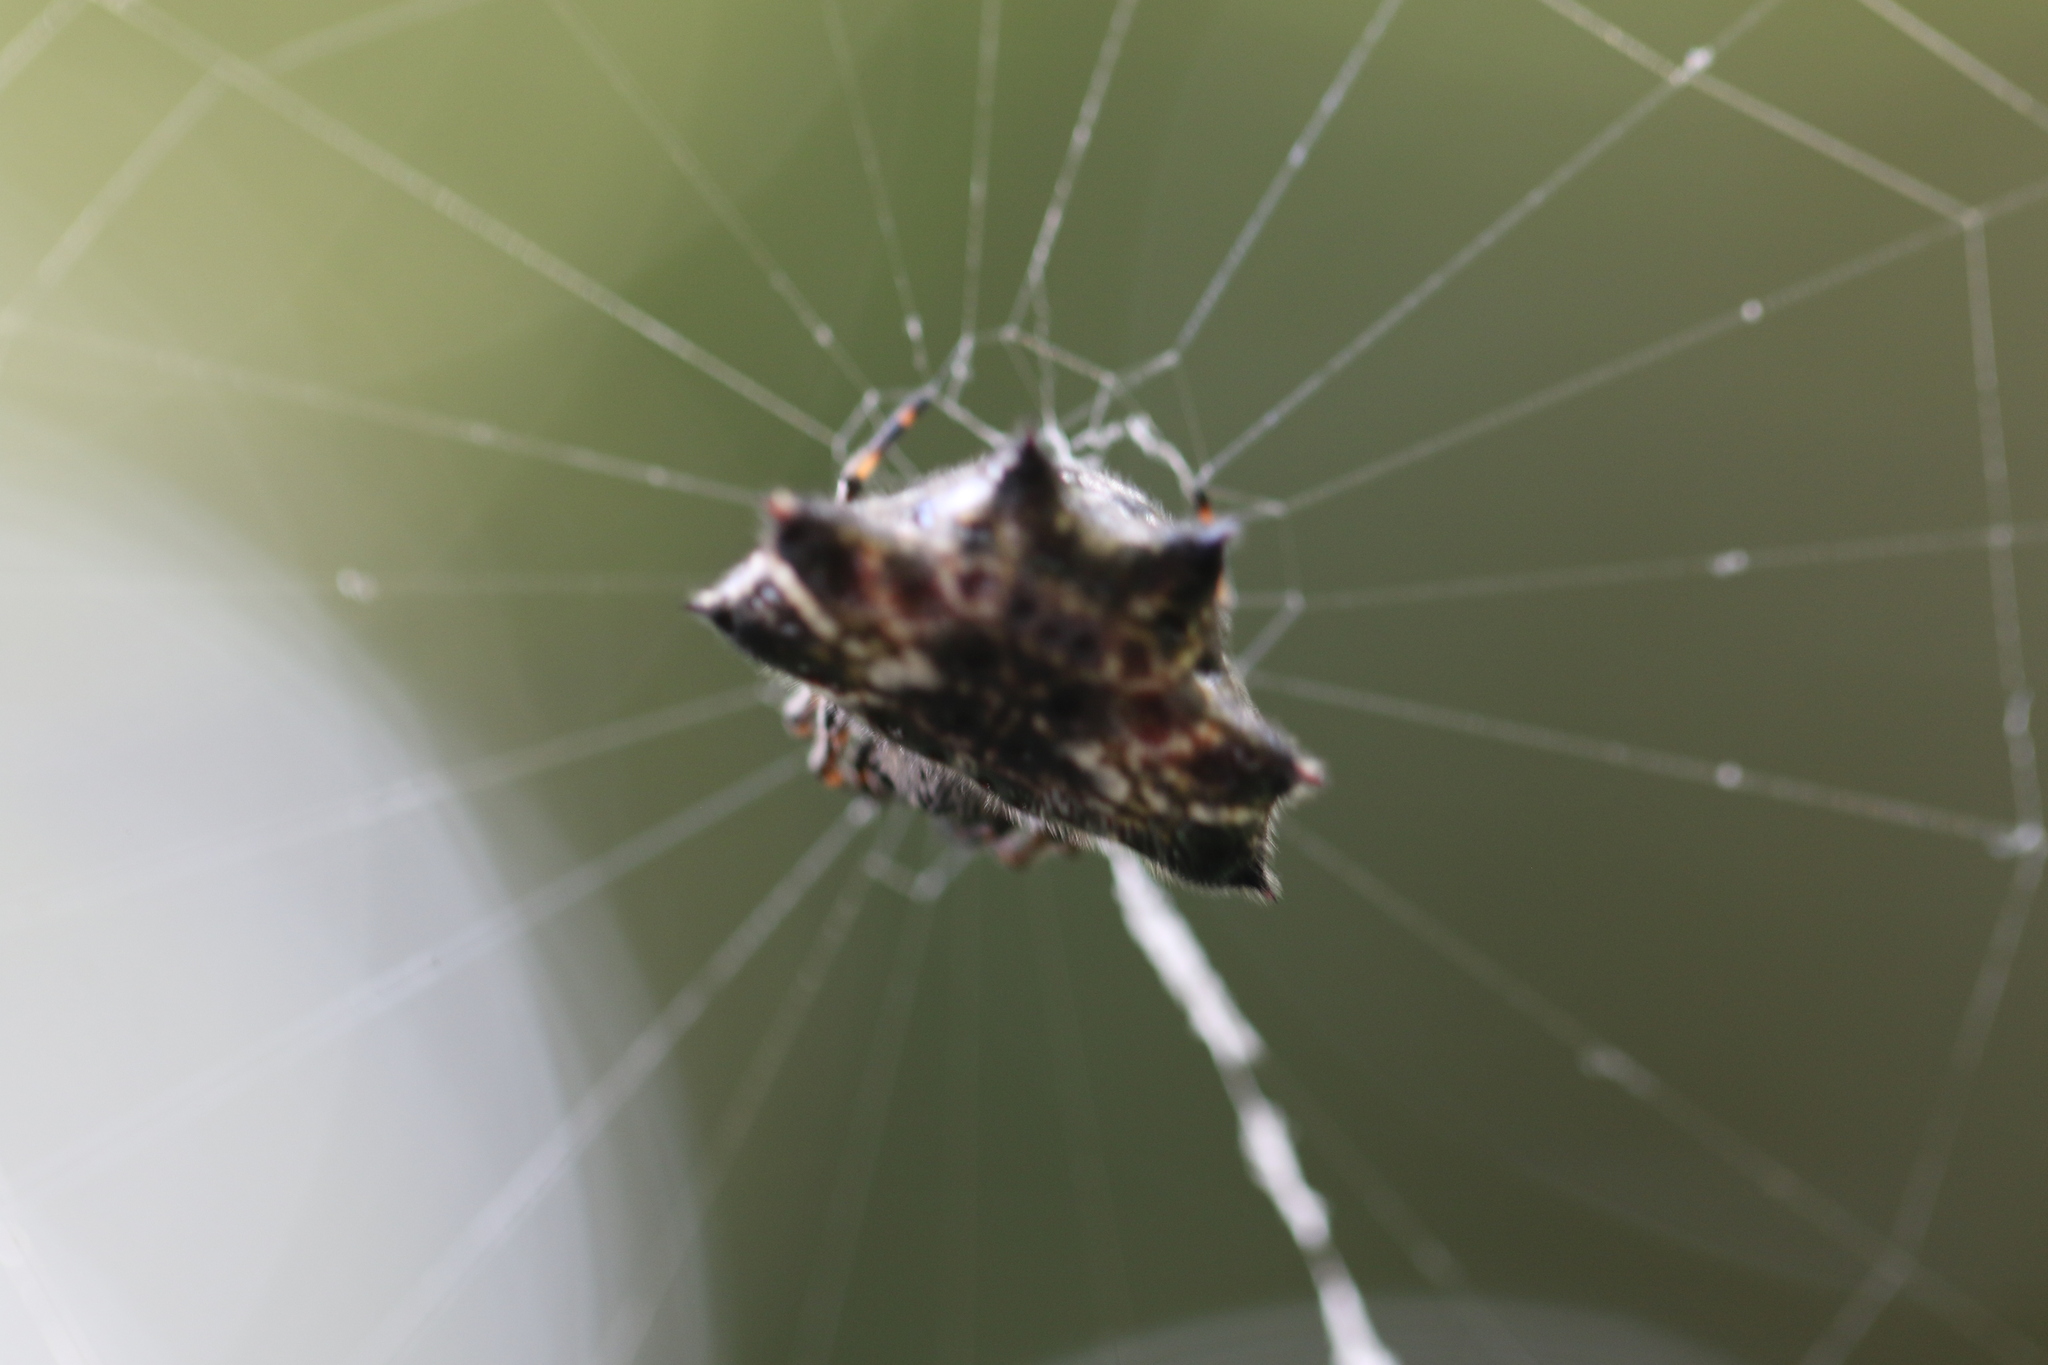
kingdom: Animalia
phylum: Arthropoda
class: Arachnida
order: Araneae
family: Araneidae
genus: Gasteracantha
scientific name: Gasteracantha cancriformis
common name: Orb weavers
